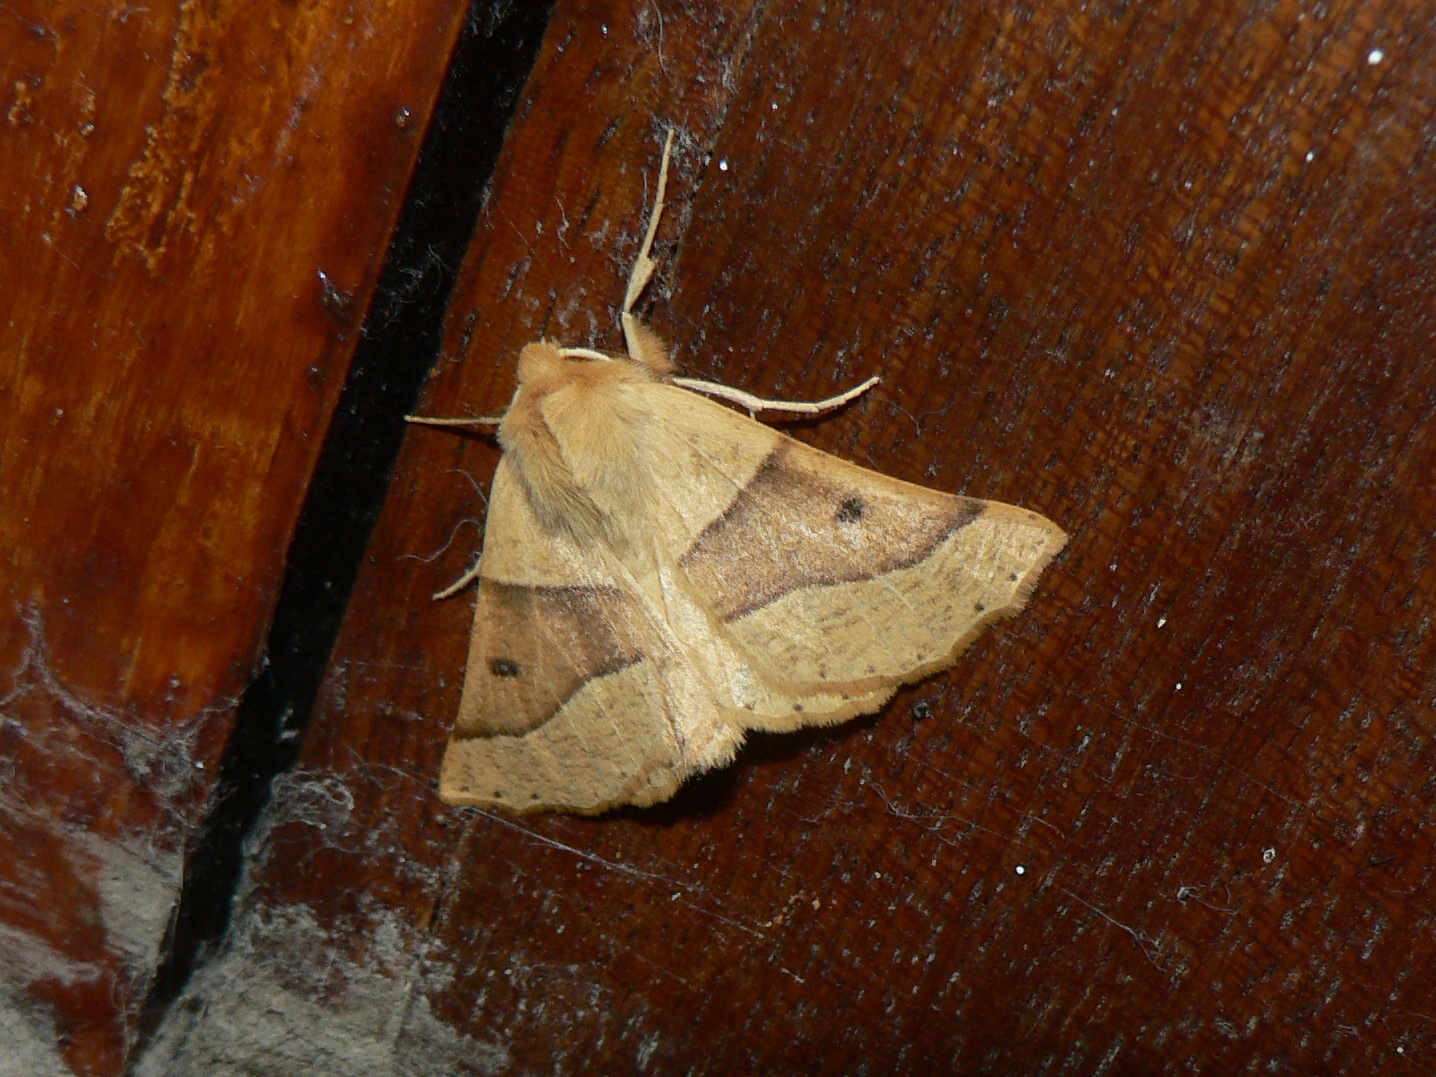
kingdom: Animalia
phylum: Arthropoda
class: Insecta
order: Lepidoptera
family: Geometridae
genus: Crocallis
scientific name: Crocallis elinguaria
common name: Scalloped oak
